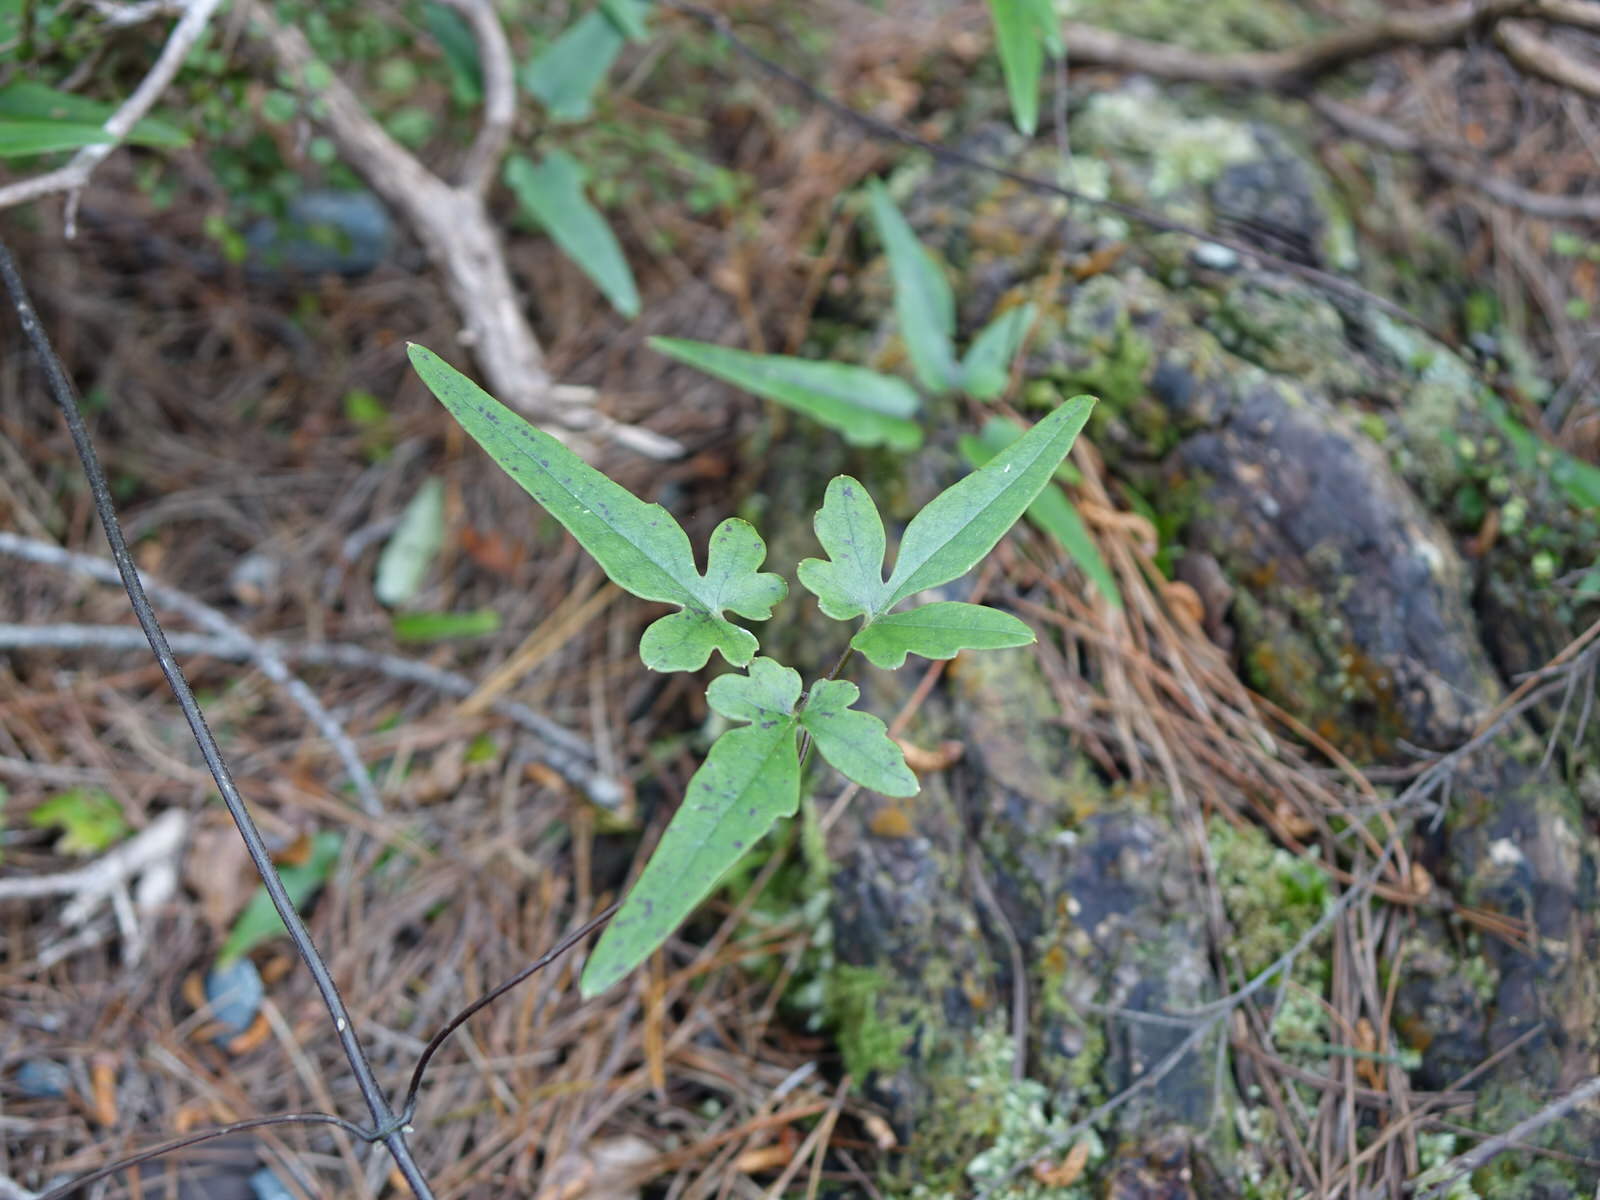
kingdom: Plantae
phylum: Tracheophyta
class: Magnoliopsida
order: Ranunculales
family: Ranunculaceae
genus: Clematis
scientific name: Clematis paniculata
